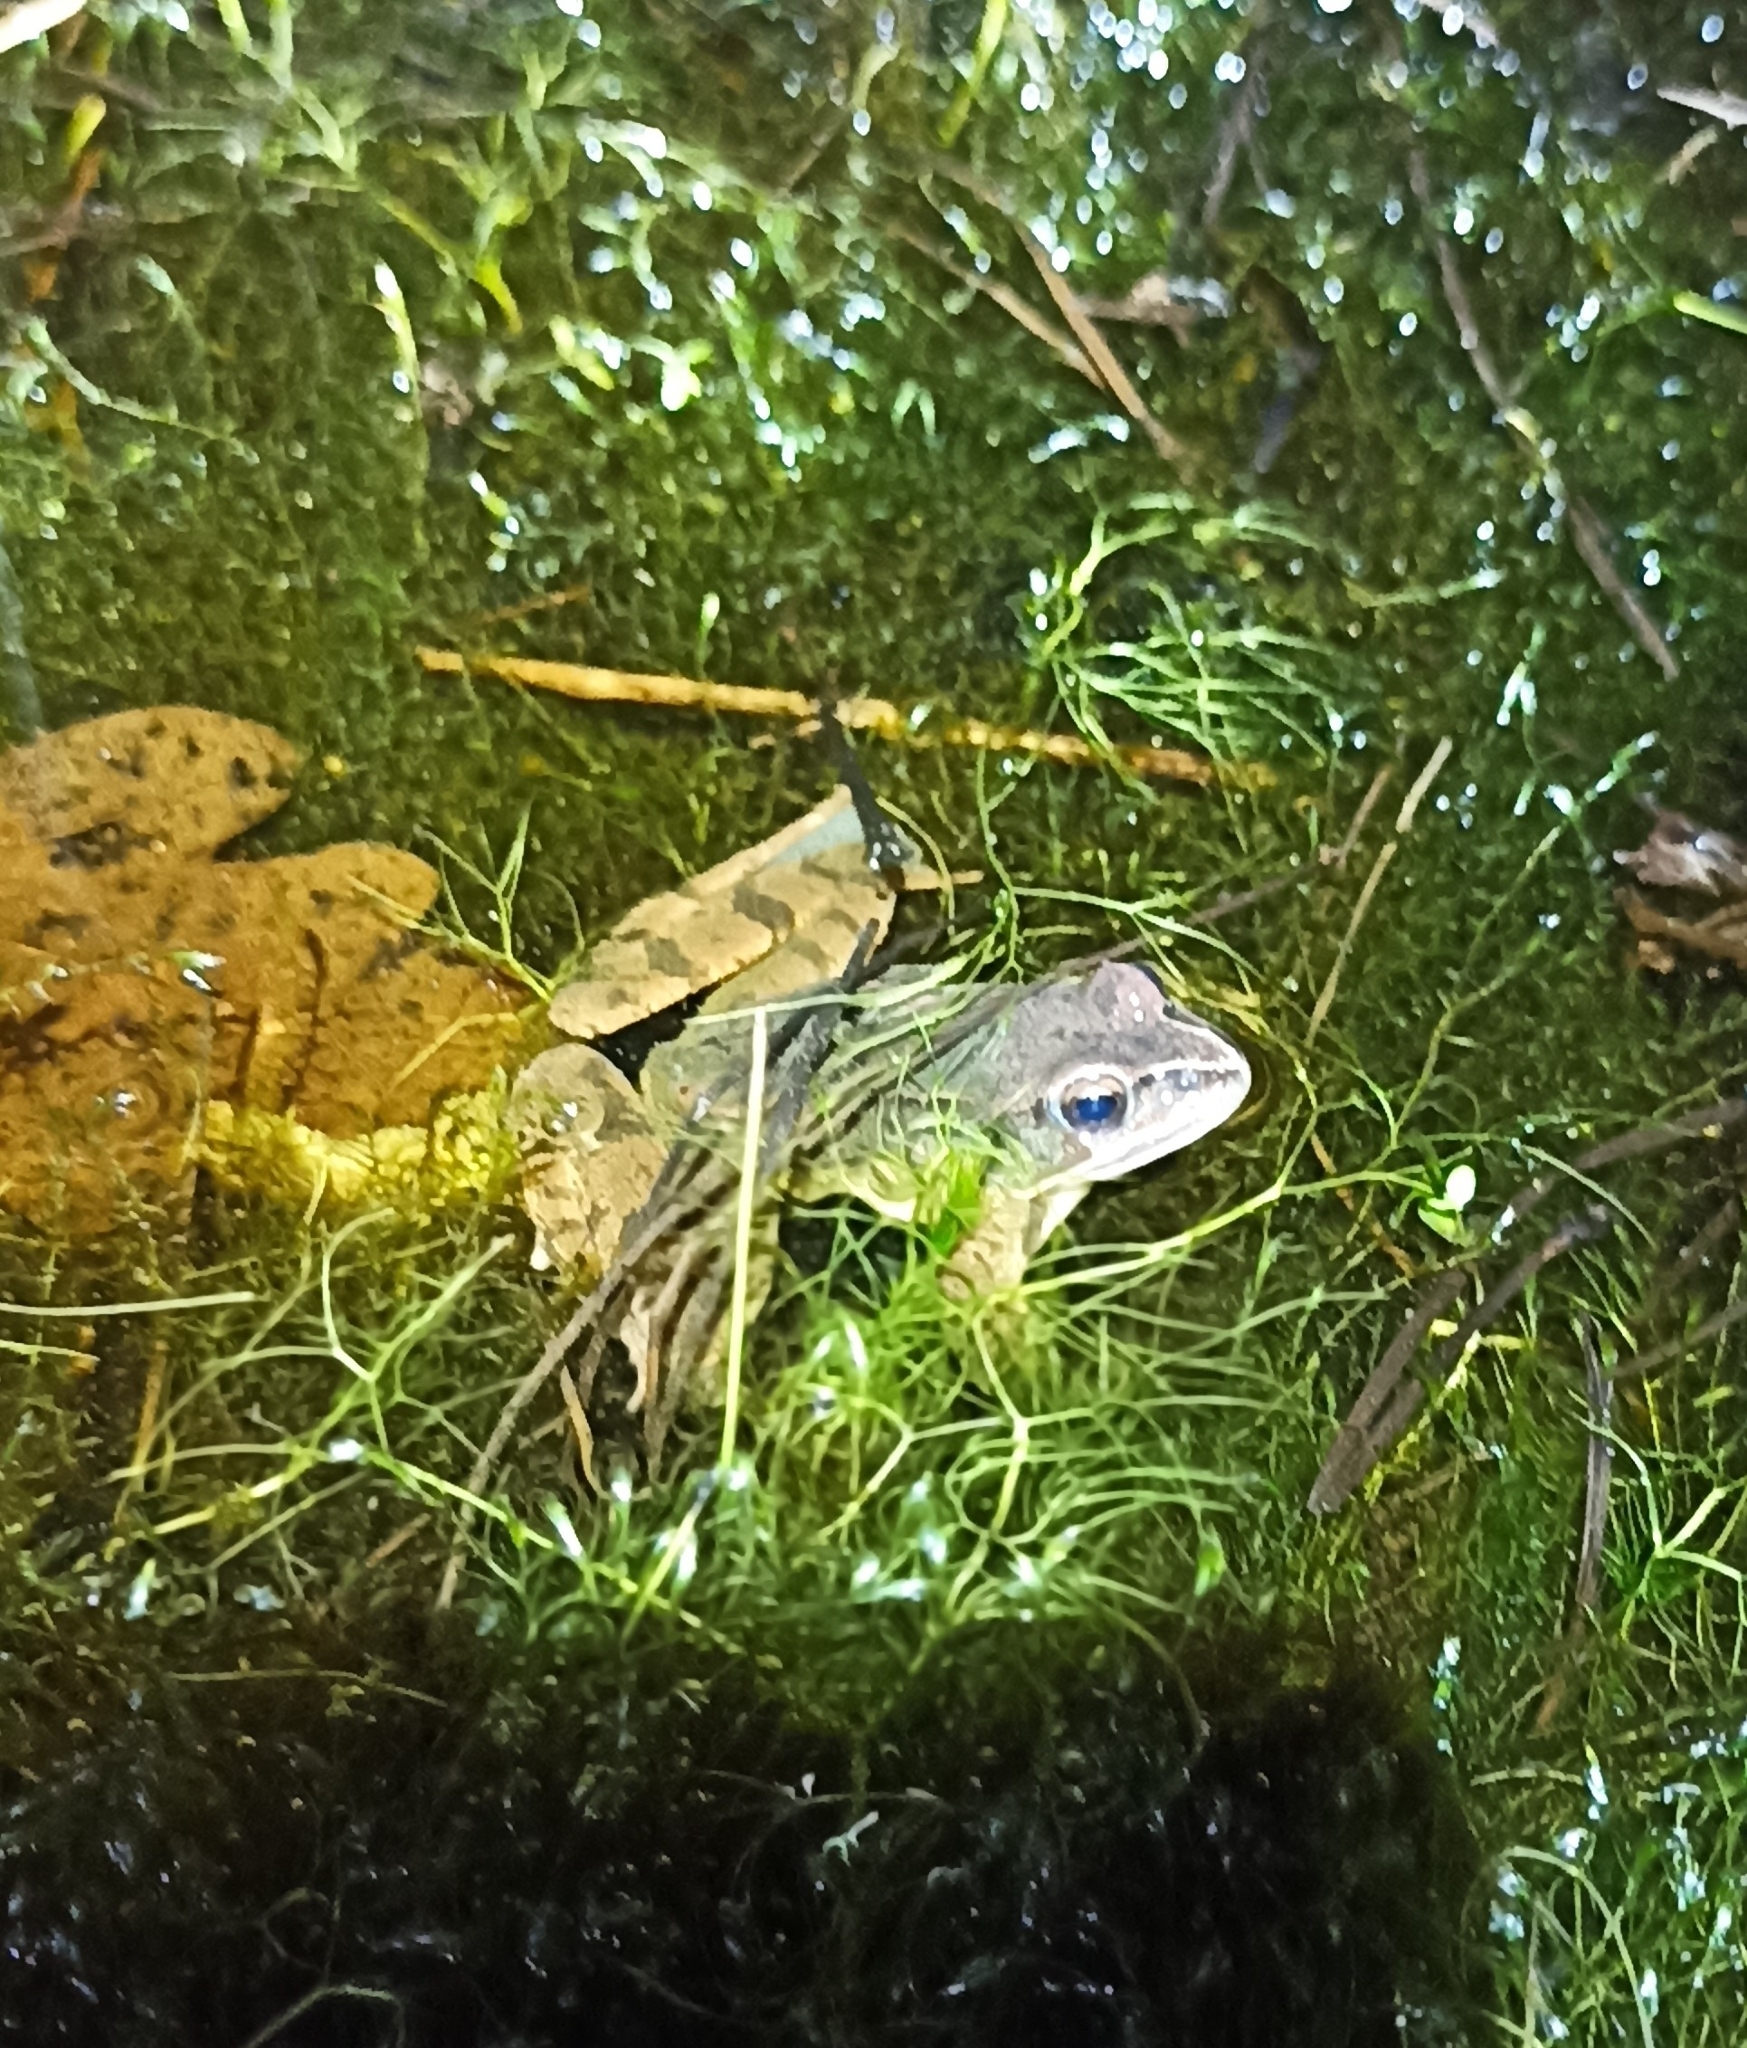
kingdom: Animalia
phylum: Chordata
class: Amphibia
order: Anura
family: Ranidae
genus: Rana
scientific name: Rana dalmatina
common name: Agile frog
